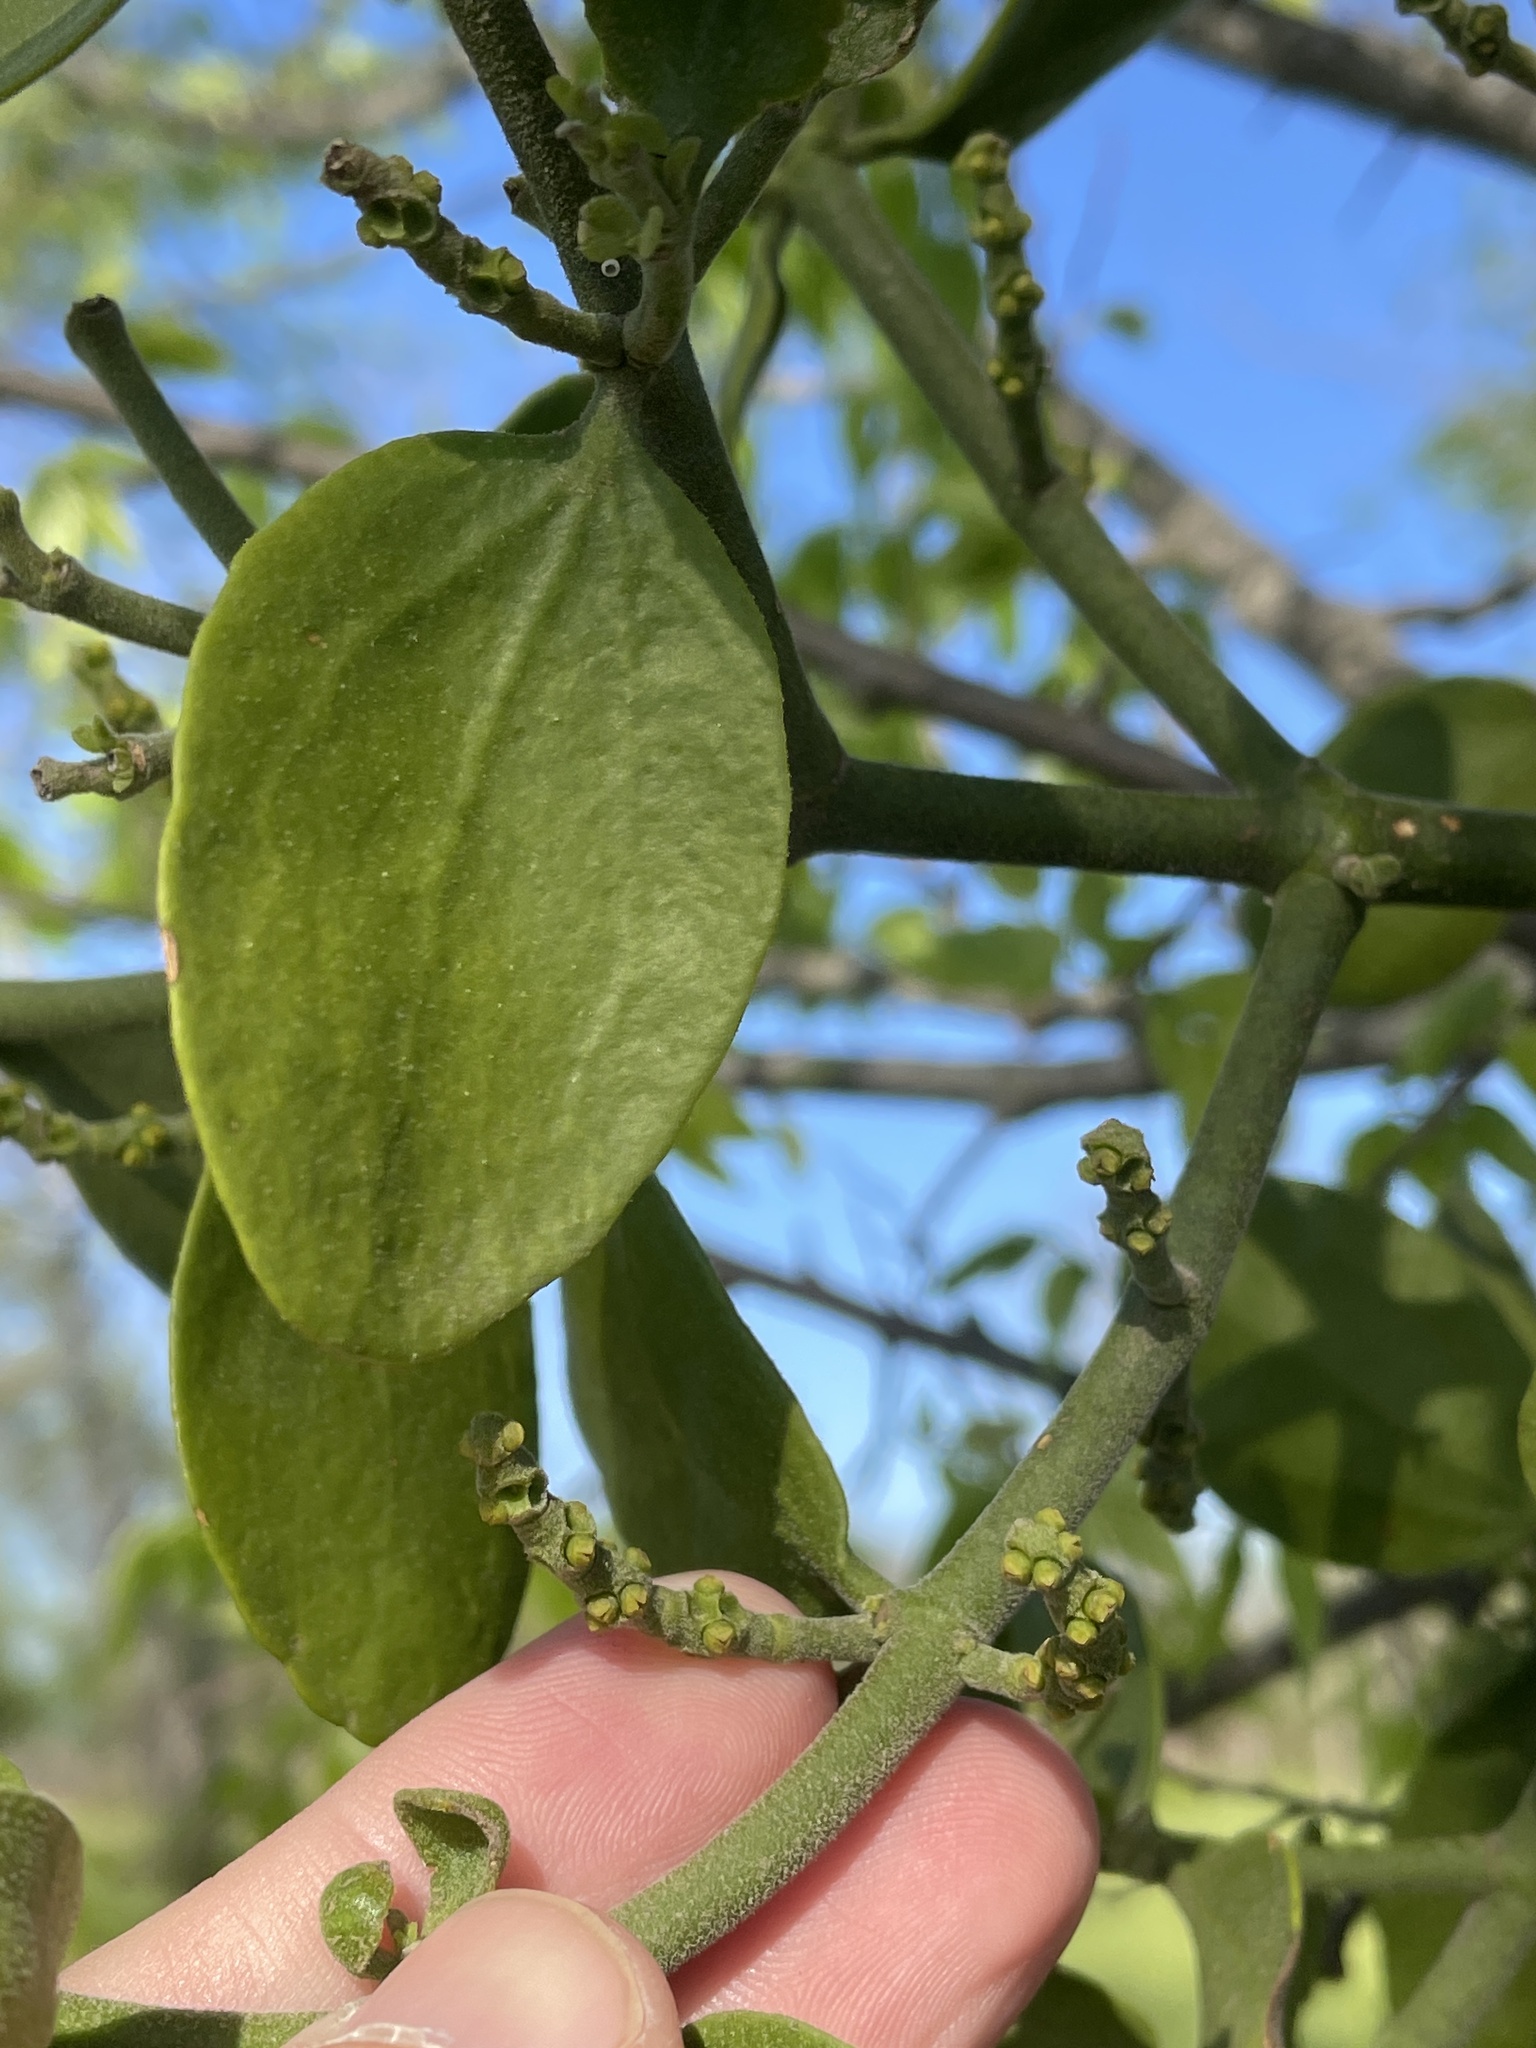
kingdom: Plantae
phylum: Tracheophyta
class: Magnoliopsida
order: Santalales
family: Viscaceae
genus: Phoradendron
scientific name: Phoradendron leucarpum
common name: Pacific mistletoe
